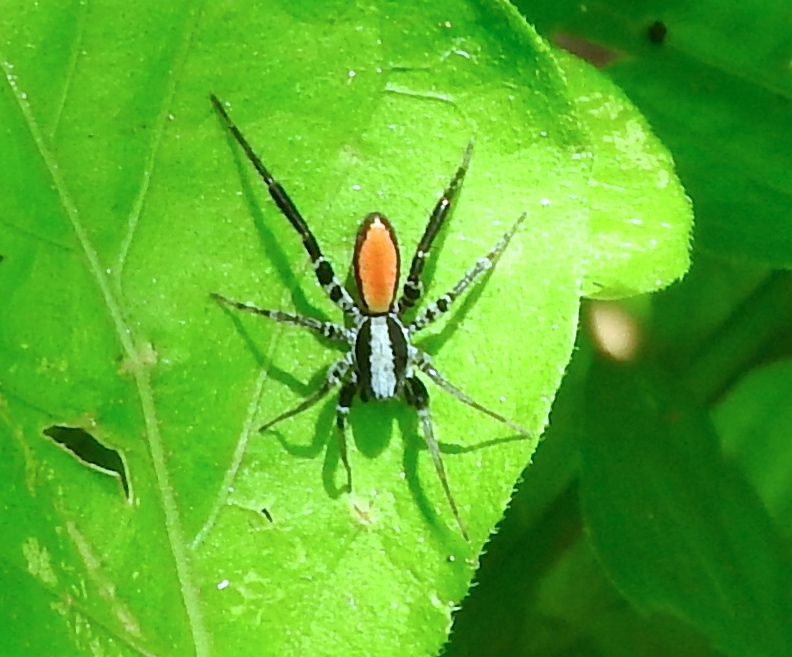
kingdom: Animalia
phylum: Arthropoda
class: Arachnida
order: Araneae
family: Corinnidae
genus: Castianeira
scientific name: Castianeira dorsata
